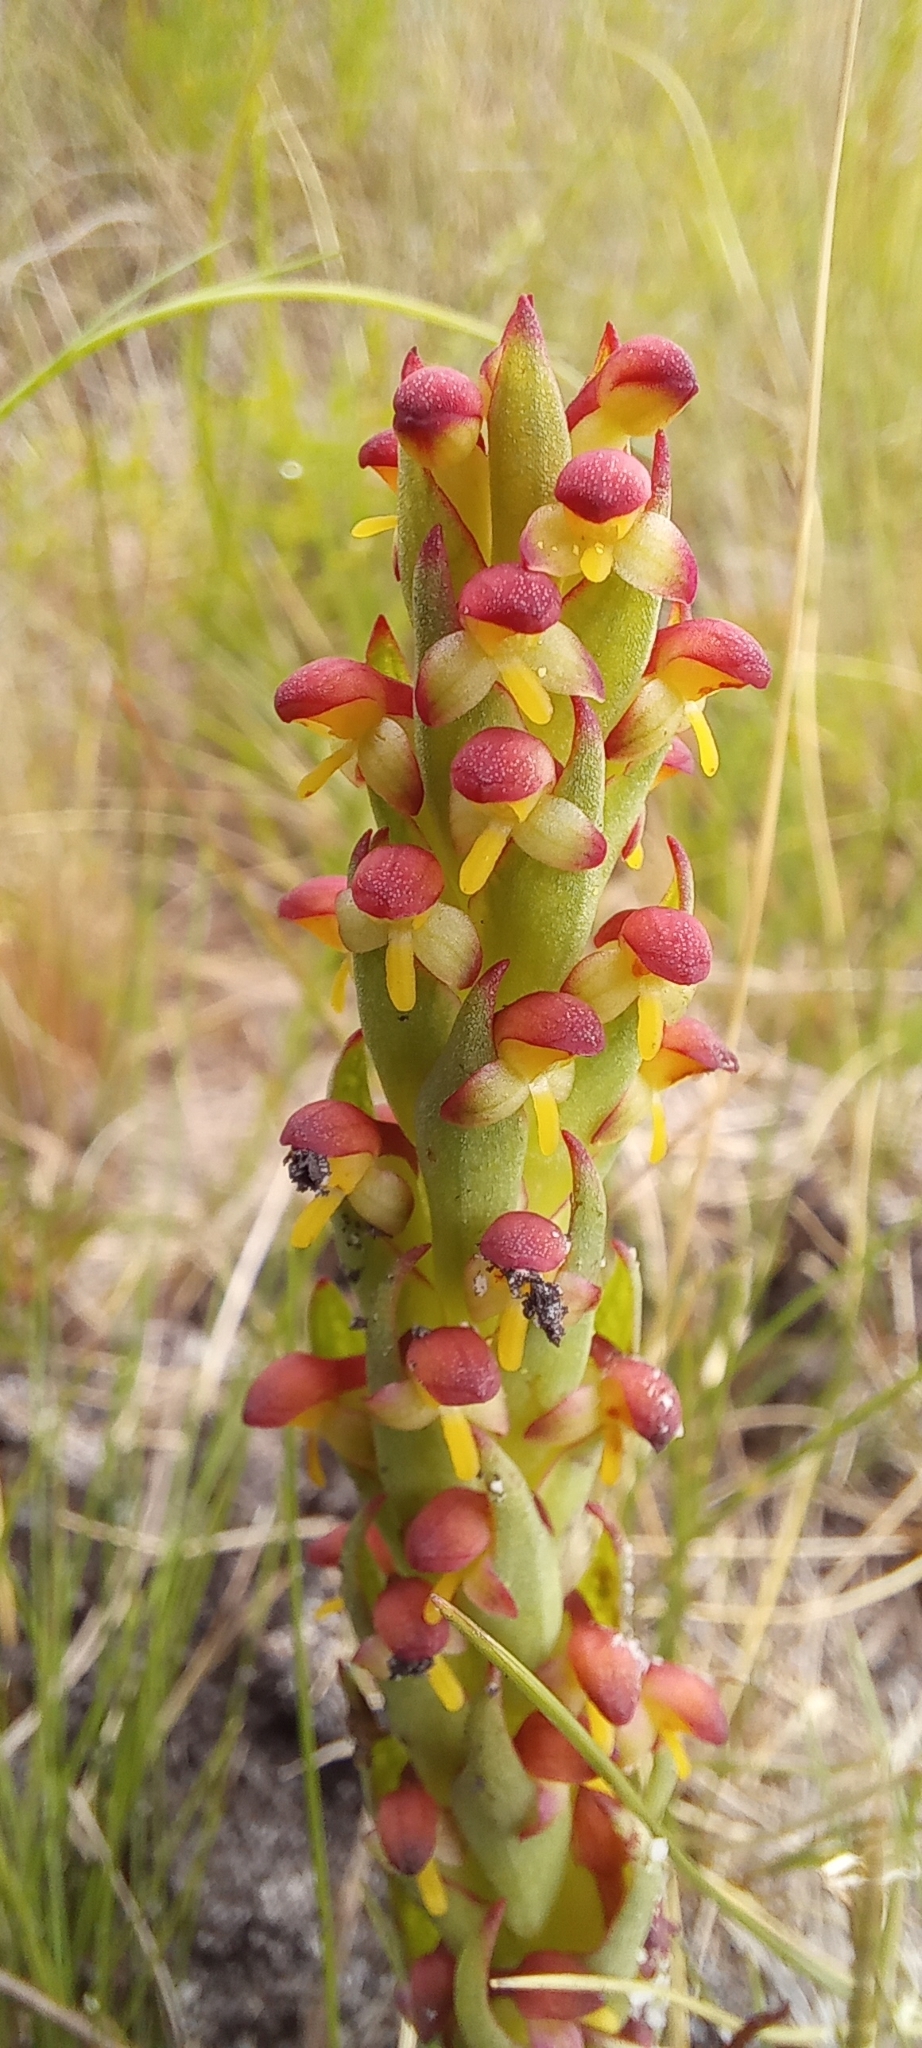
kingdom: Plantae
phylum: Tracheophyta
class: Liliopsida
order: Asparagales
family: Orchidaceae
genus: Disa
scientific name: Disa bracteata
